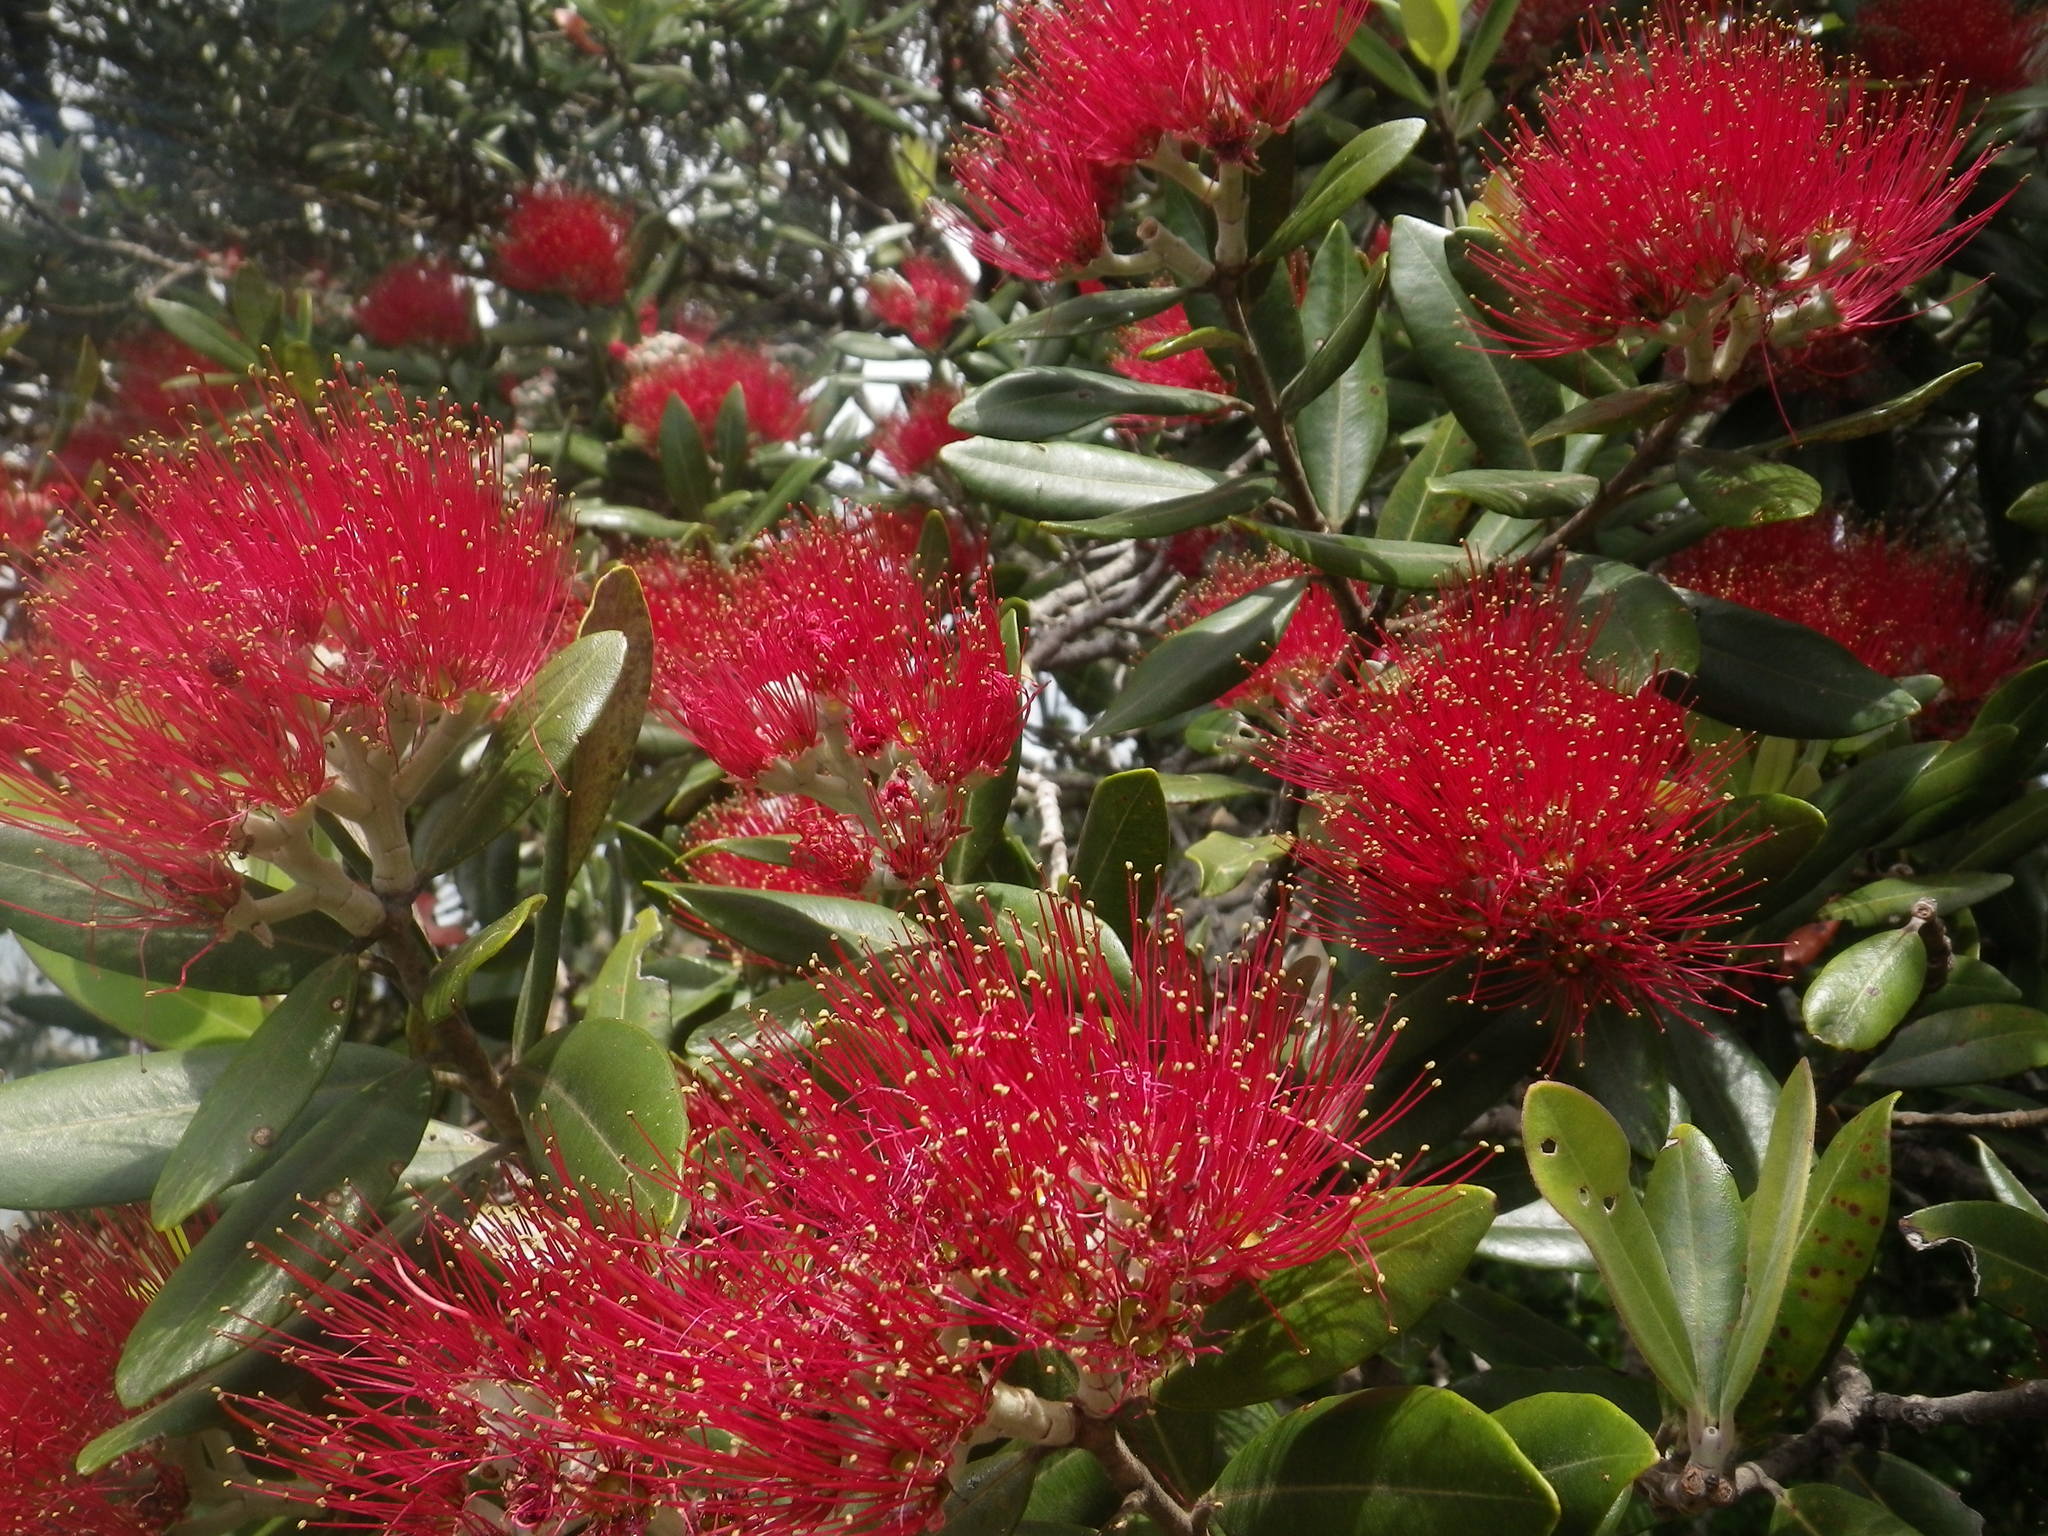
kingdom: Plantae
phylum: Tracheophyta
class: Magnoliopsida
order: Myrtales
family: Myrtaceae
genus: Metrosideros
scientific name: Metrosideros excelsa
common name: New zealand christmastree
